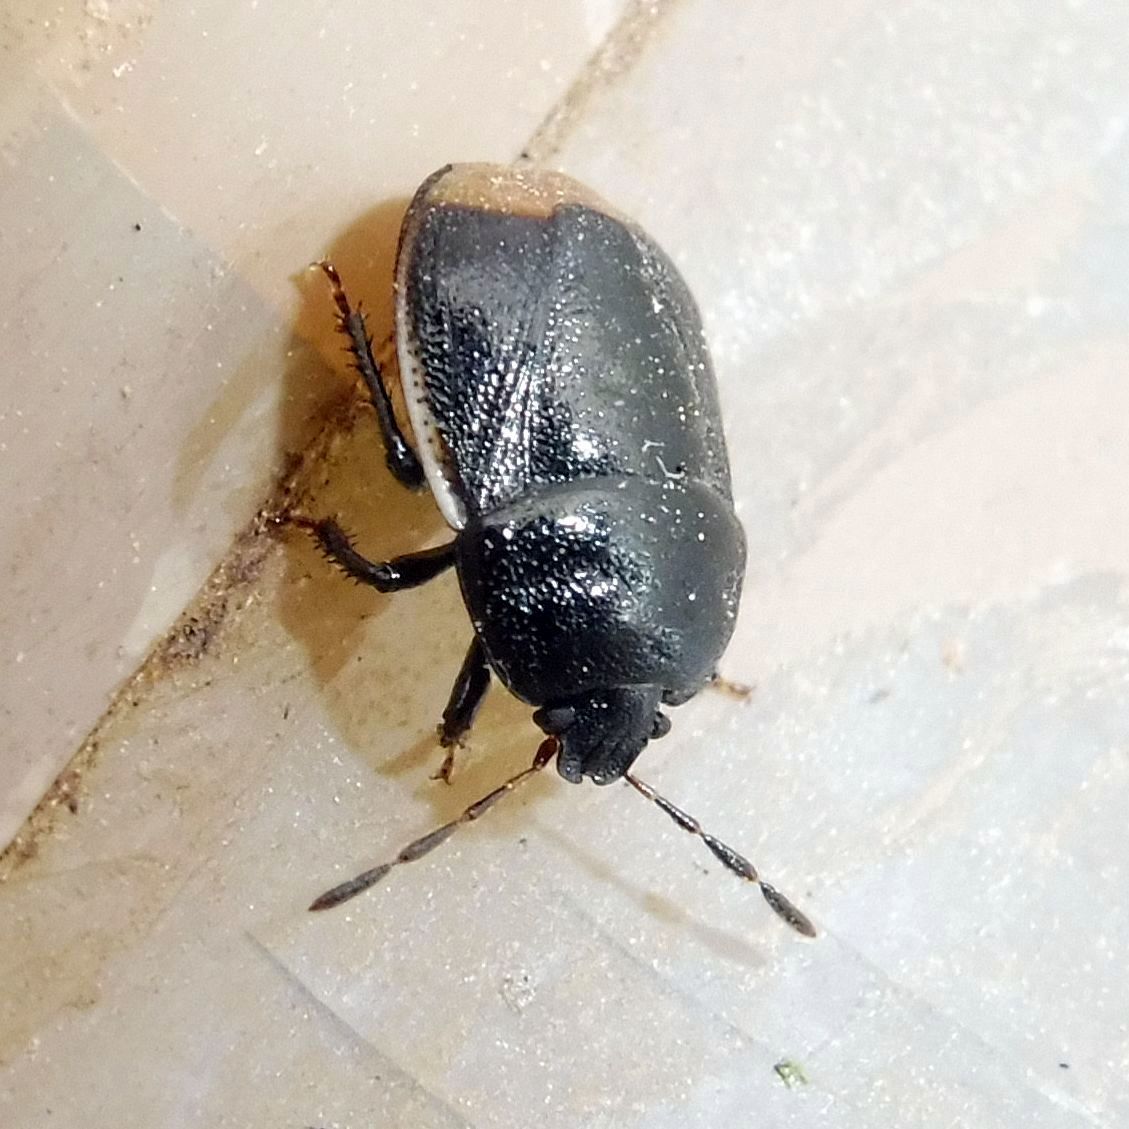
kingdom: Animalia
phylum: Arthropoda
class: Insecta
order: Hemiptera
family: Cydnidae
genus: Legnotus
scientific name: Legnotus limbosus
